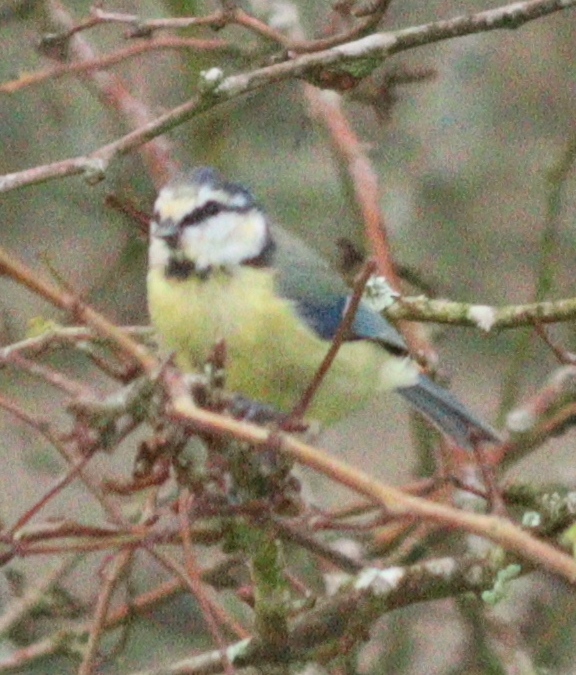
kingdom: Animalia
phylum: Chordata
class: Aves
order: Passeriformes
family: Paridae
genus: Cyanistes
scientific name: Cyanistes caeruleus
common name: Eurasian blue tit
